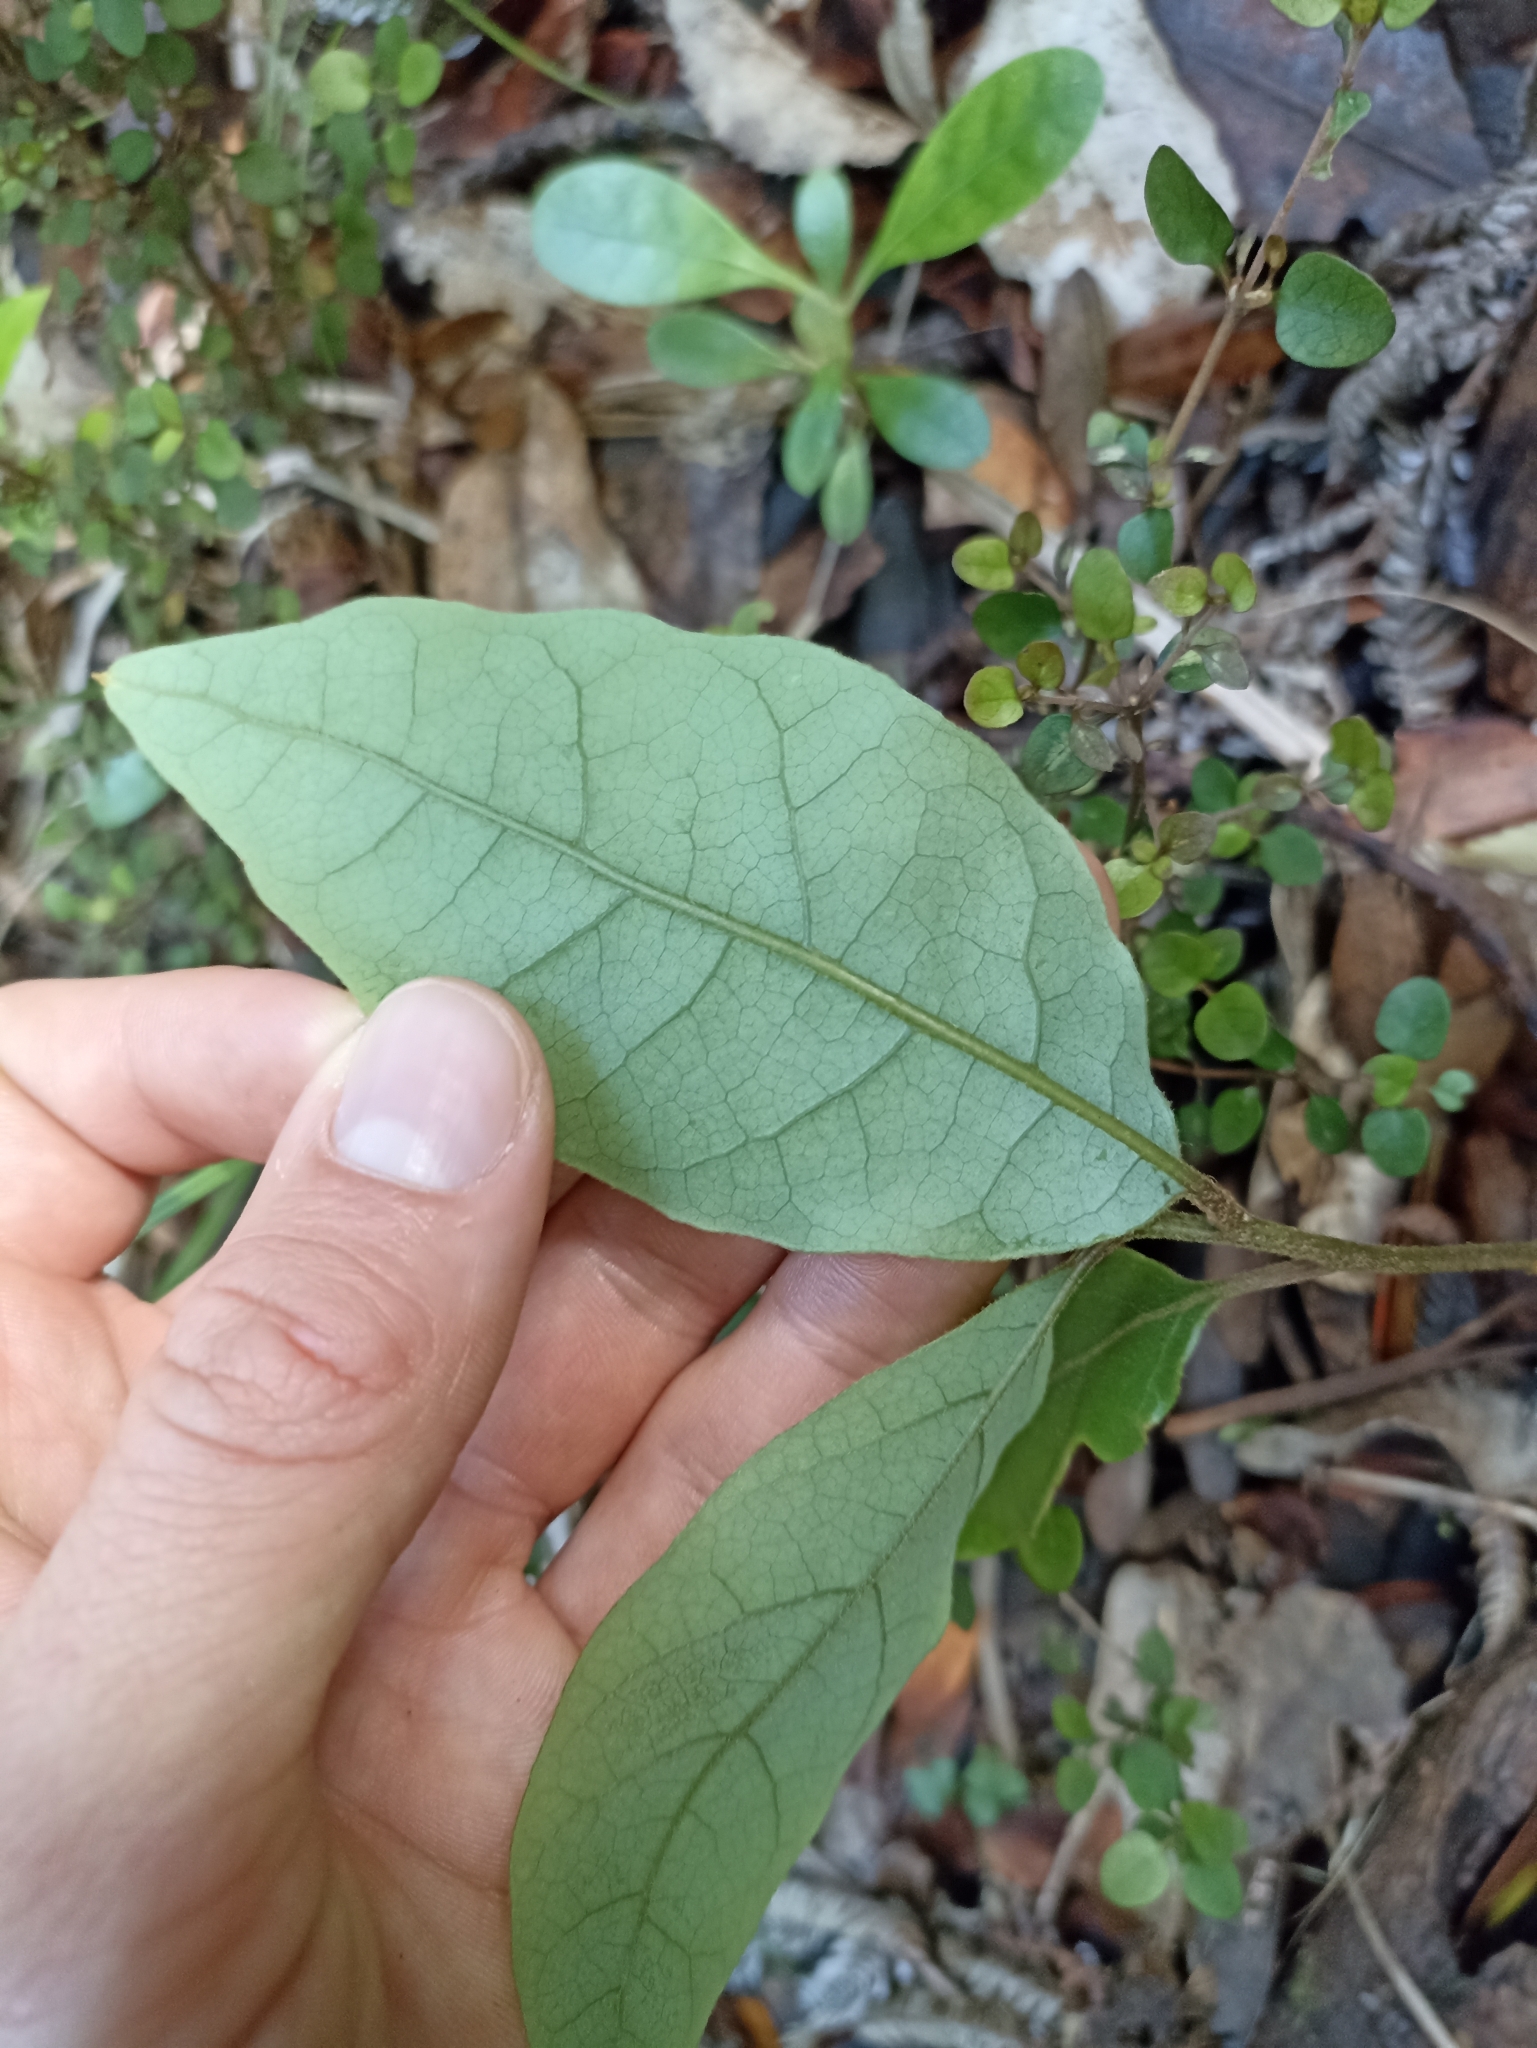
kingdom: Plantae
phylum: Tracheophyta
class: Magnoliopsida
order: Laurales
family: Lauraceae
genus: Beilschmiedia
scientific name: Beilschmiedia tarairi
